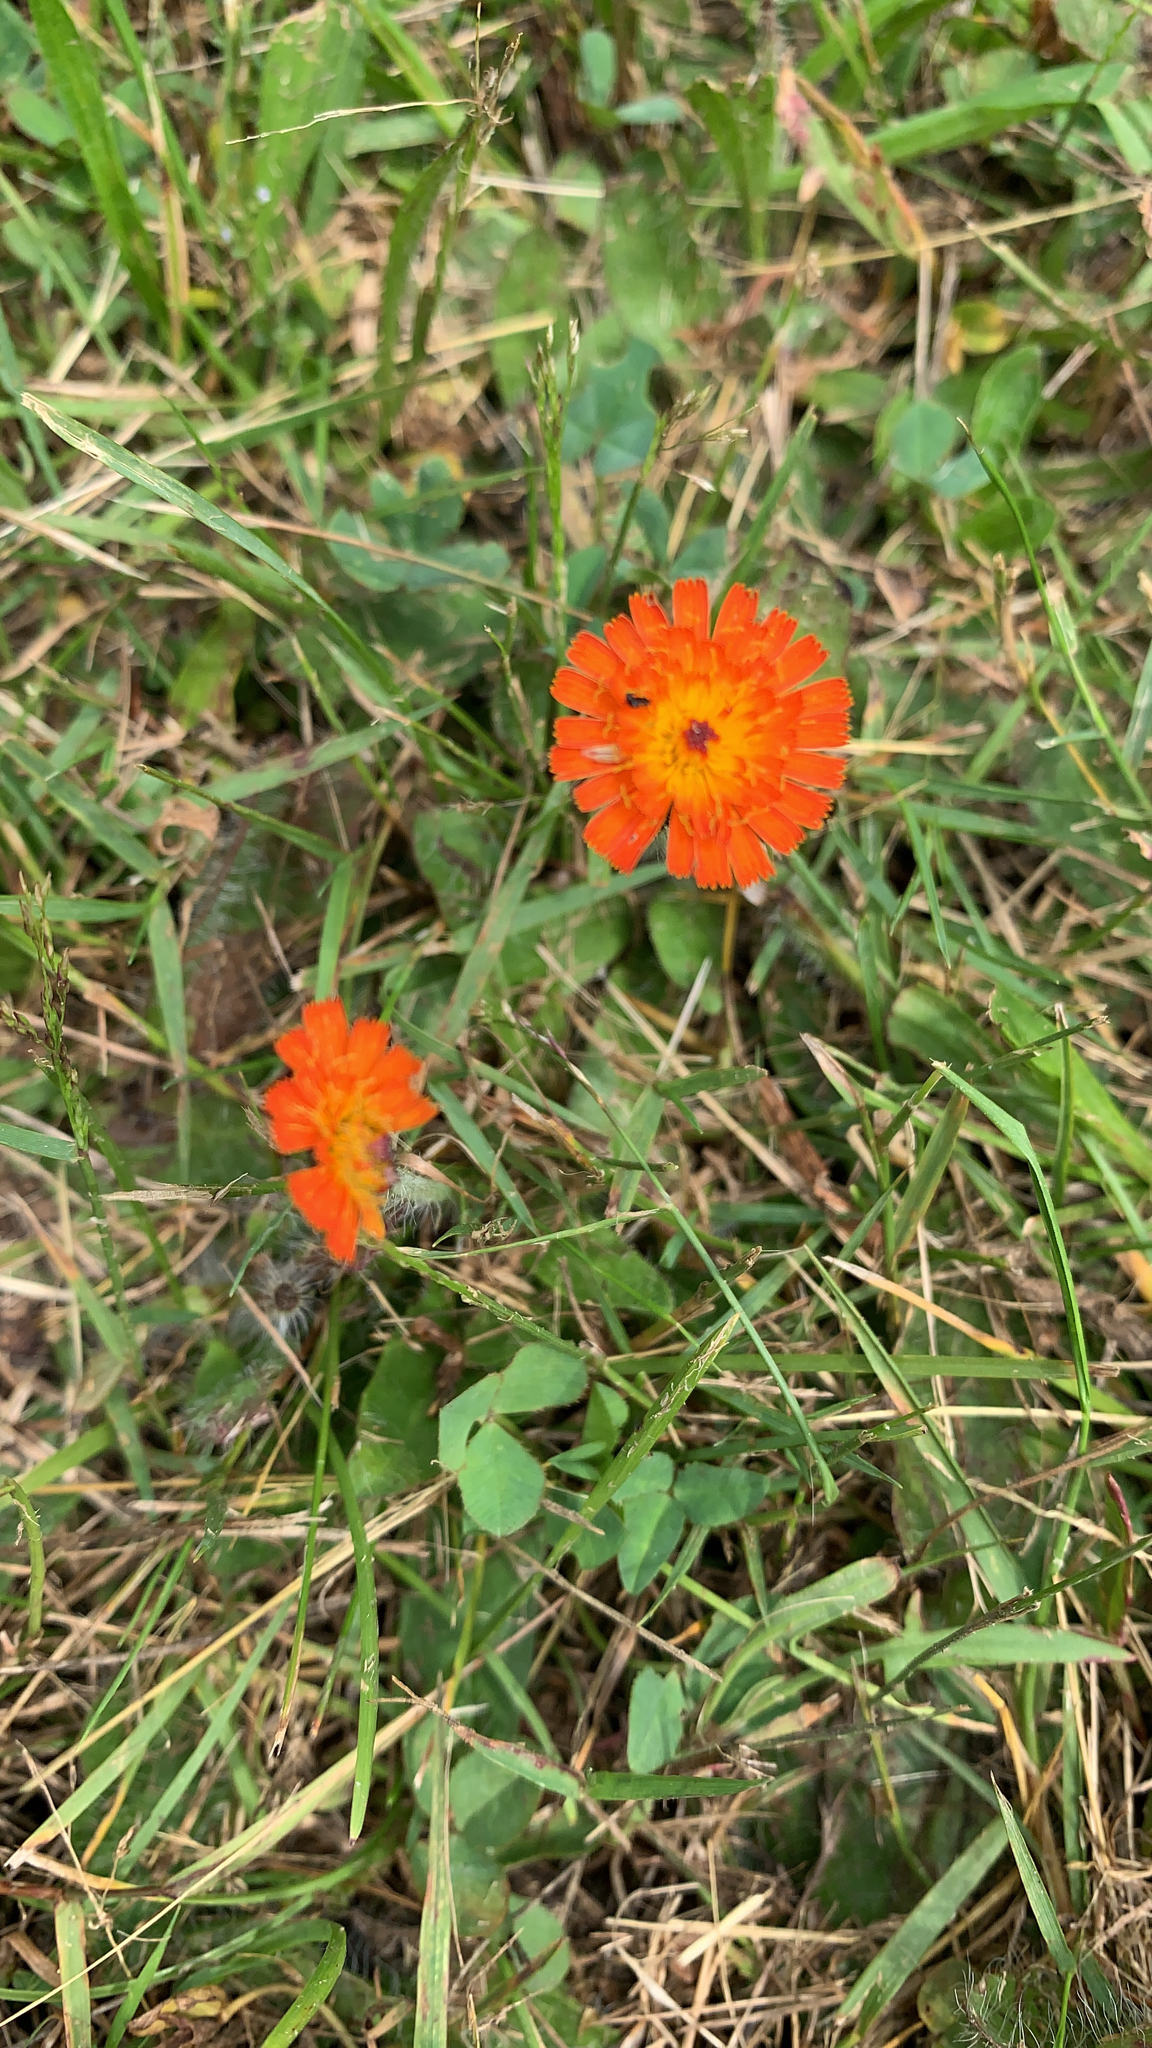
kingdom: Plantae
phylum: Tracheophyta
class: Magnoliopsida
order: Asterales
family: Asteraceae
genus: Pilosella
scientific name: Pilosella aurantiaca
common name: Fox-and-cubs
